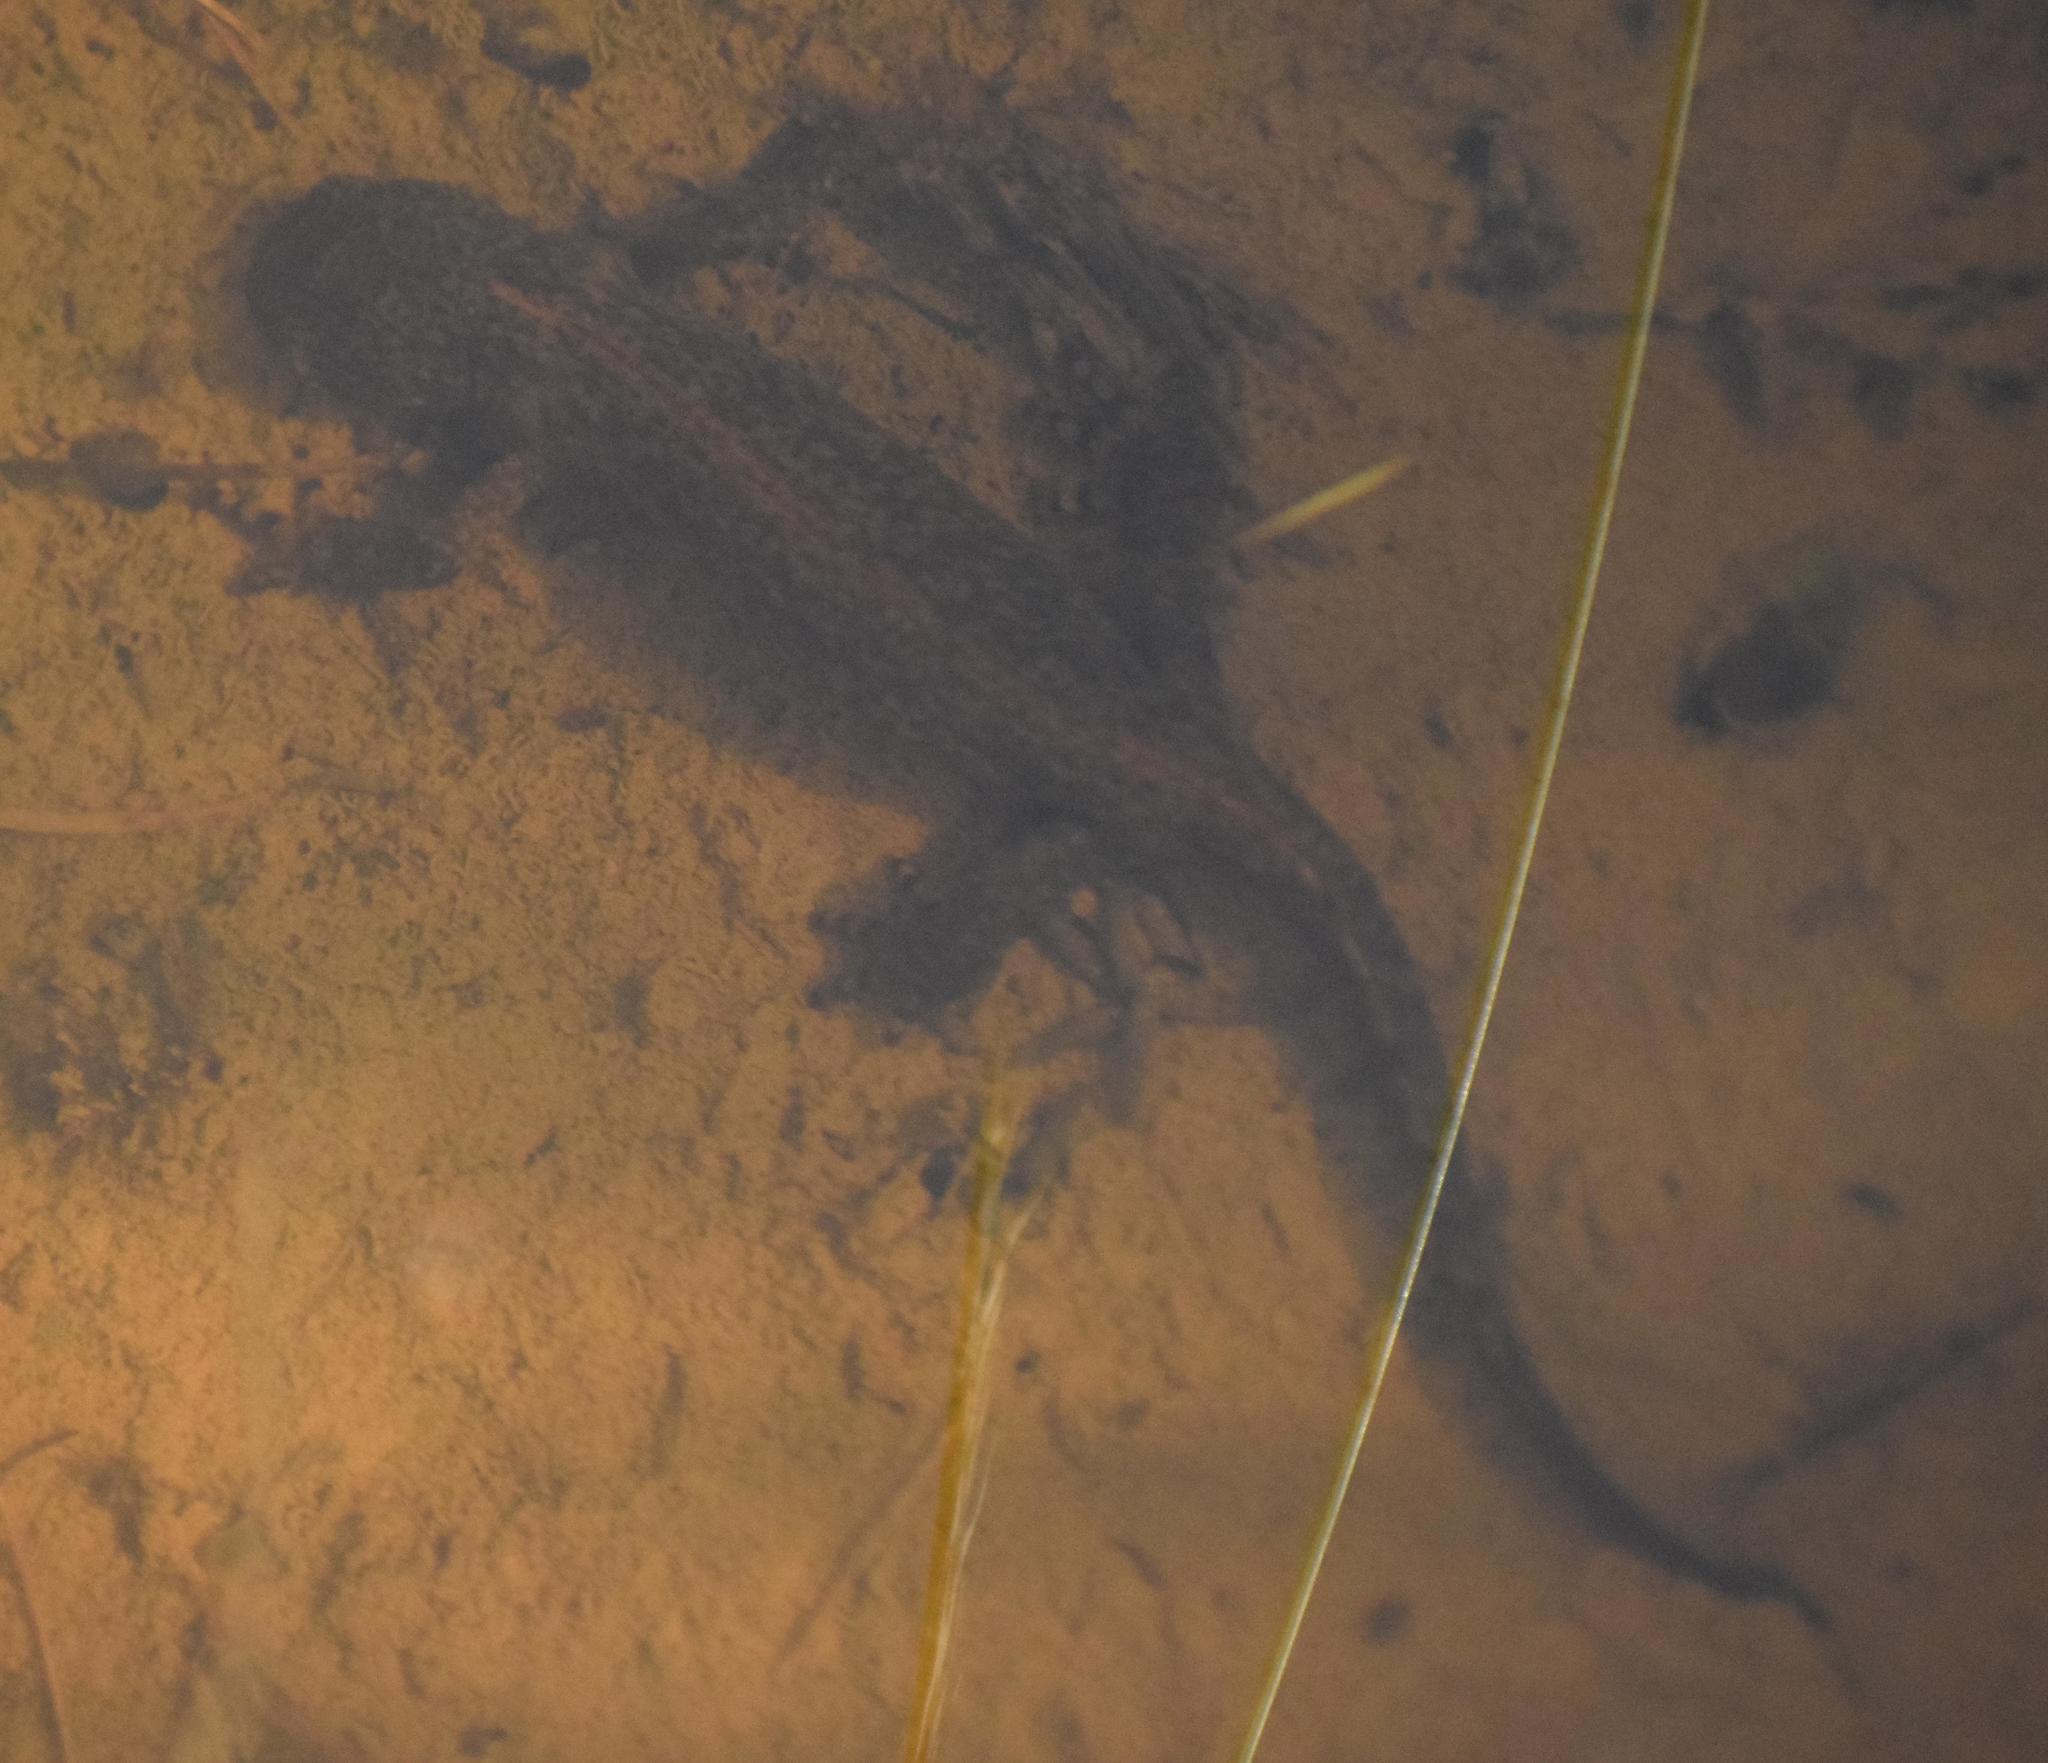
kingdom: Animalia
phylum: Chordata
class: Amphibia
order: Caudata
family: Salamandridae
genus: Ichthyosaura
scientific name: Ichthyosaura alpestris
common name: Alpine newt
